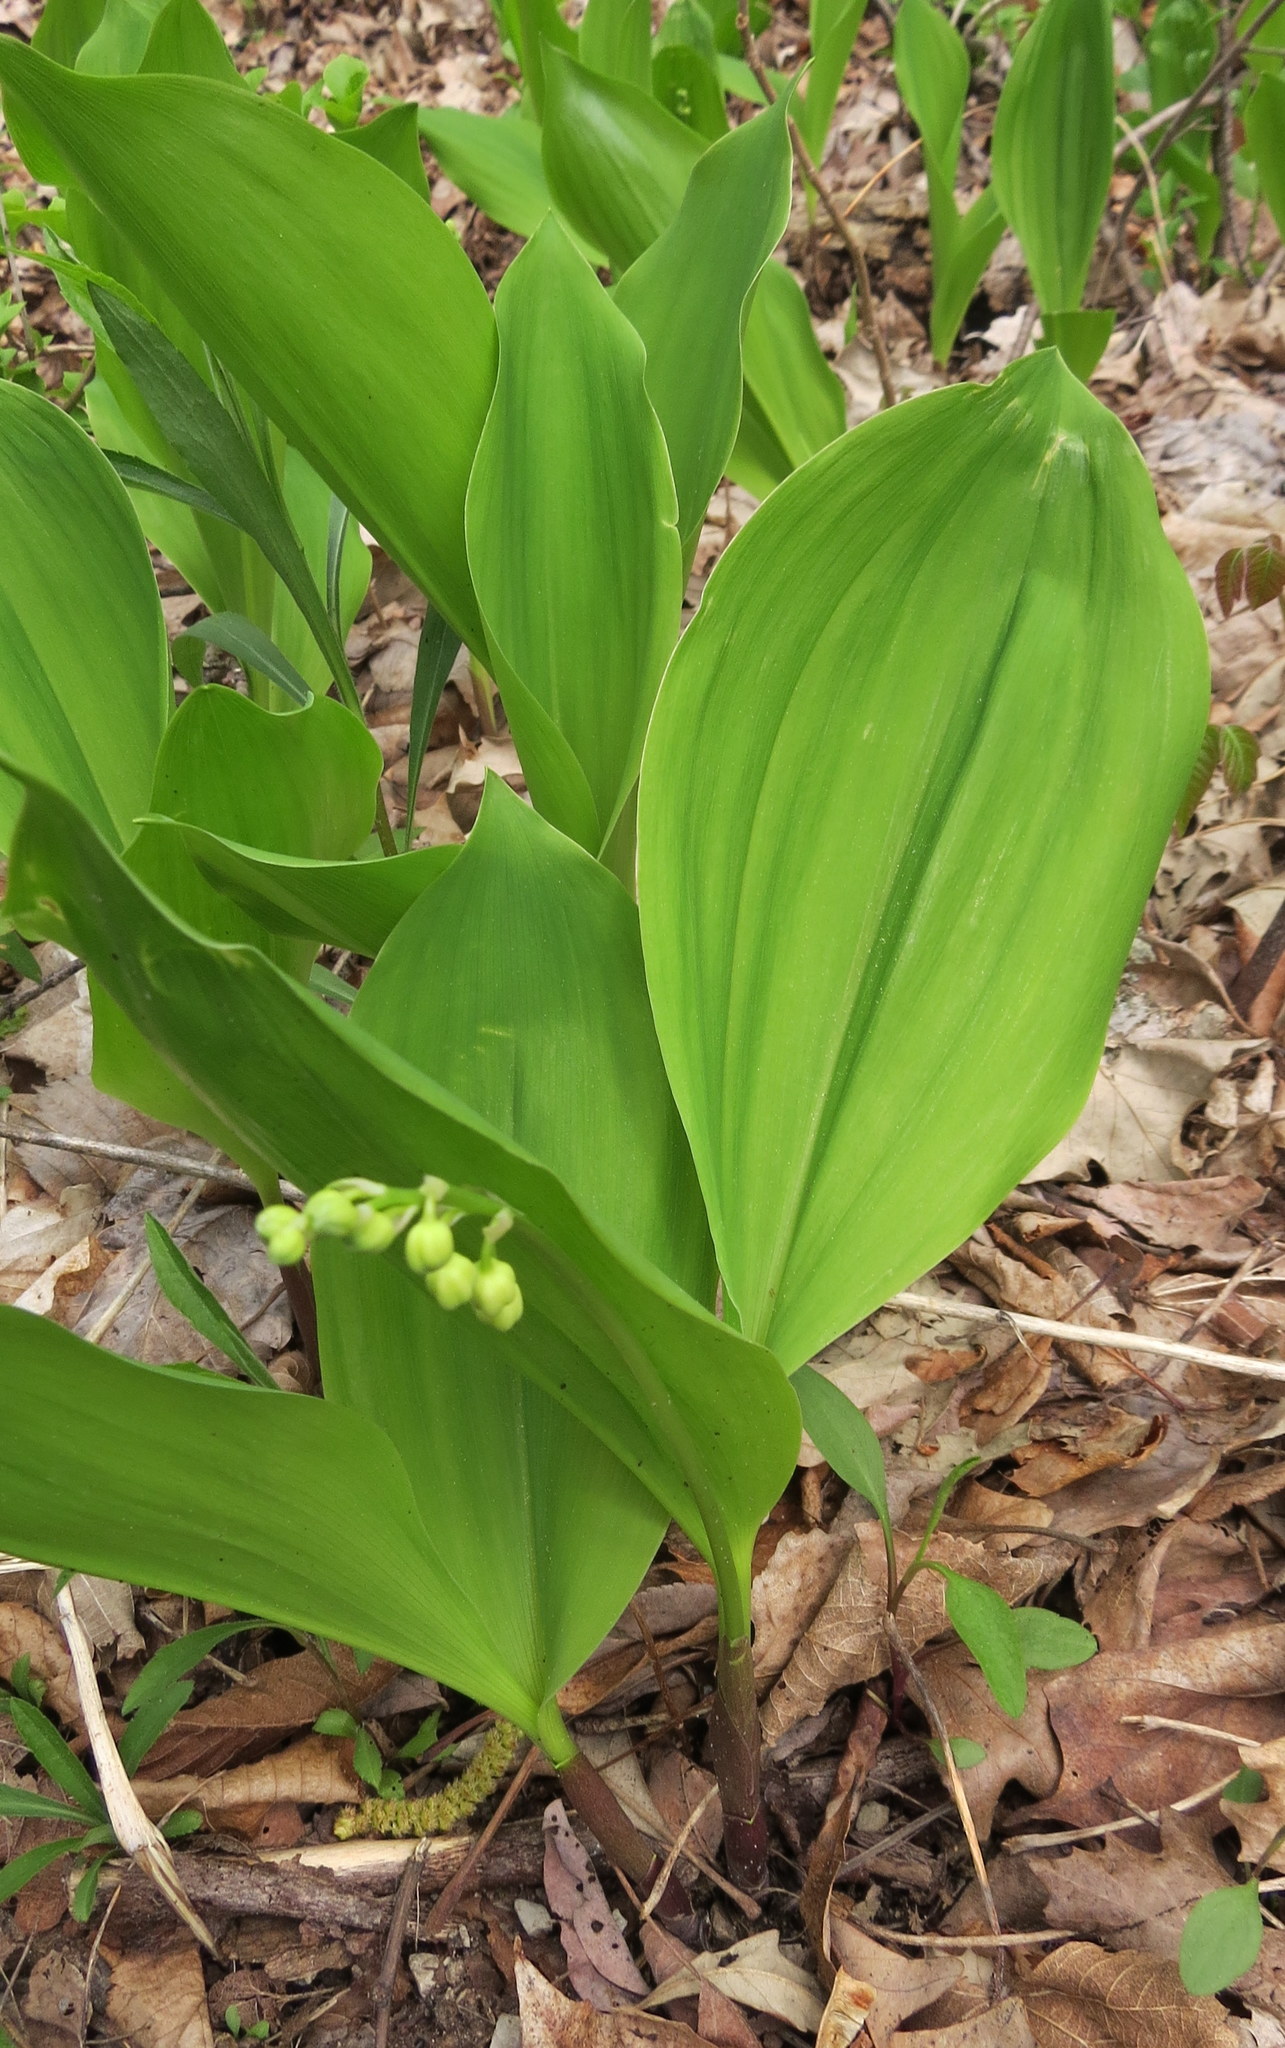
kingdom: Plantae
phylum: Tracheophyta
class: Liliopsida
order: Asparagales
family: Asparagaceae
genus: Convallaria
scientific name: Convallaria majalis
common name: Lily-of-the-valley
